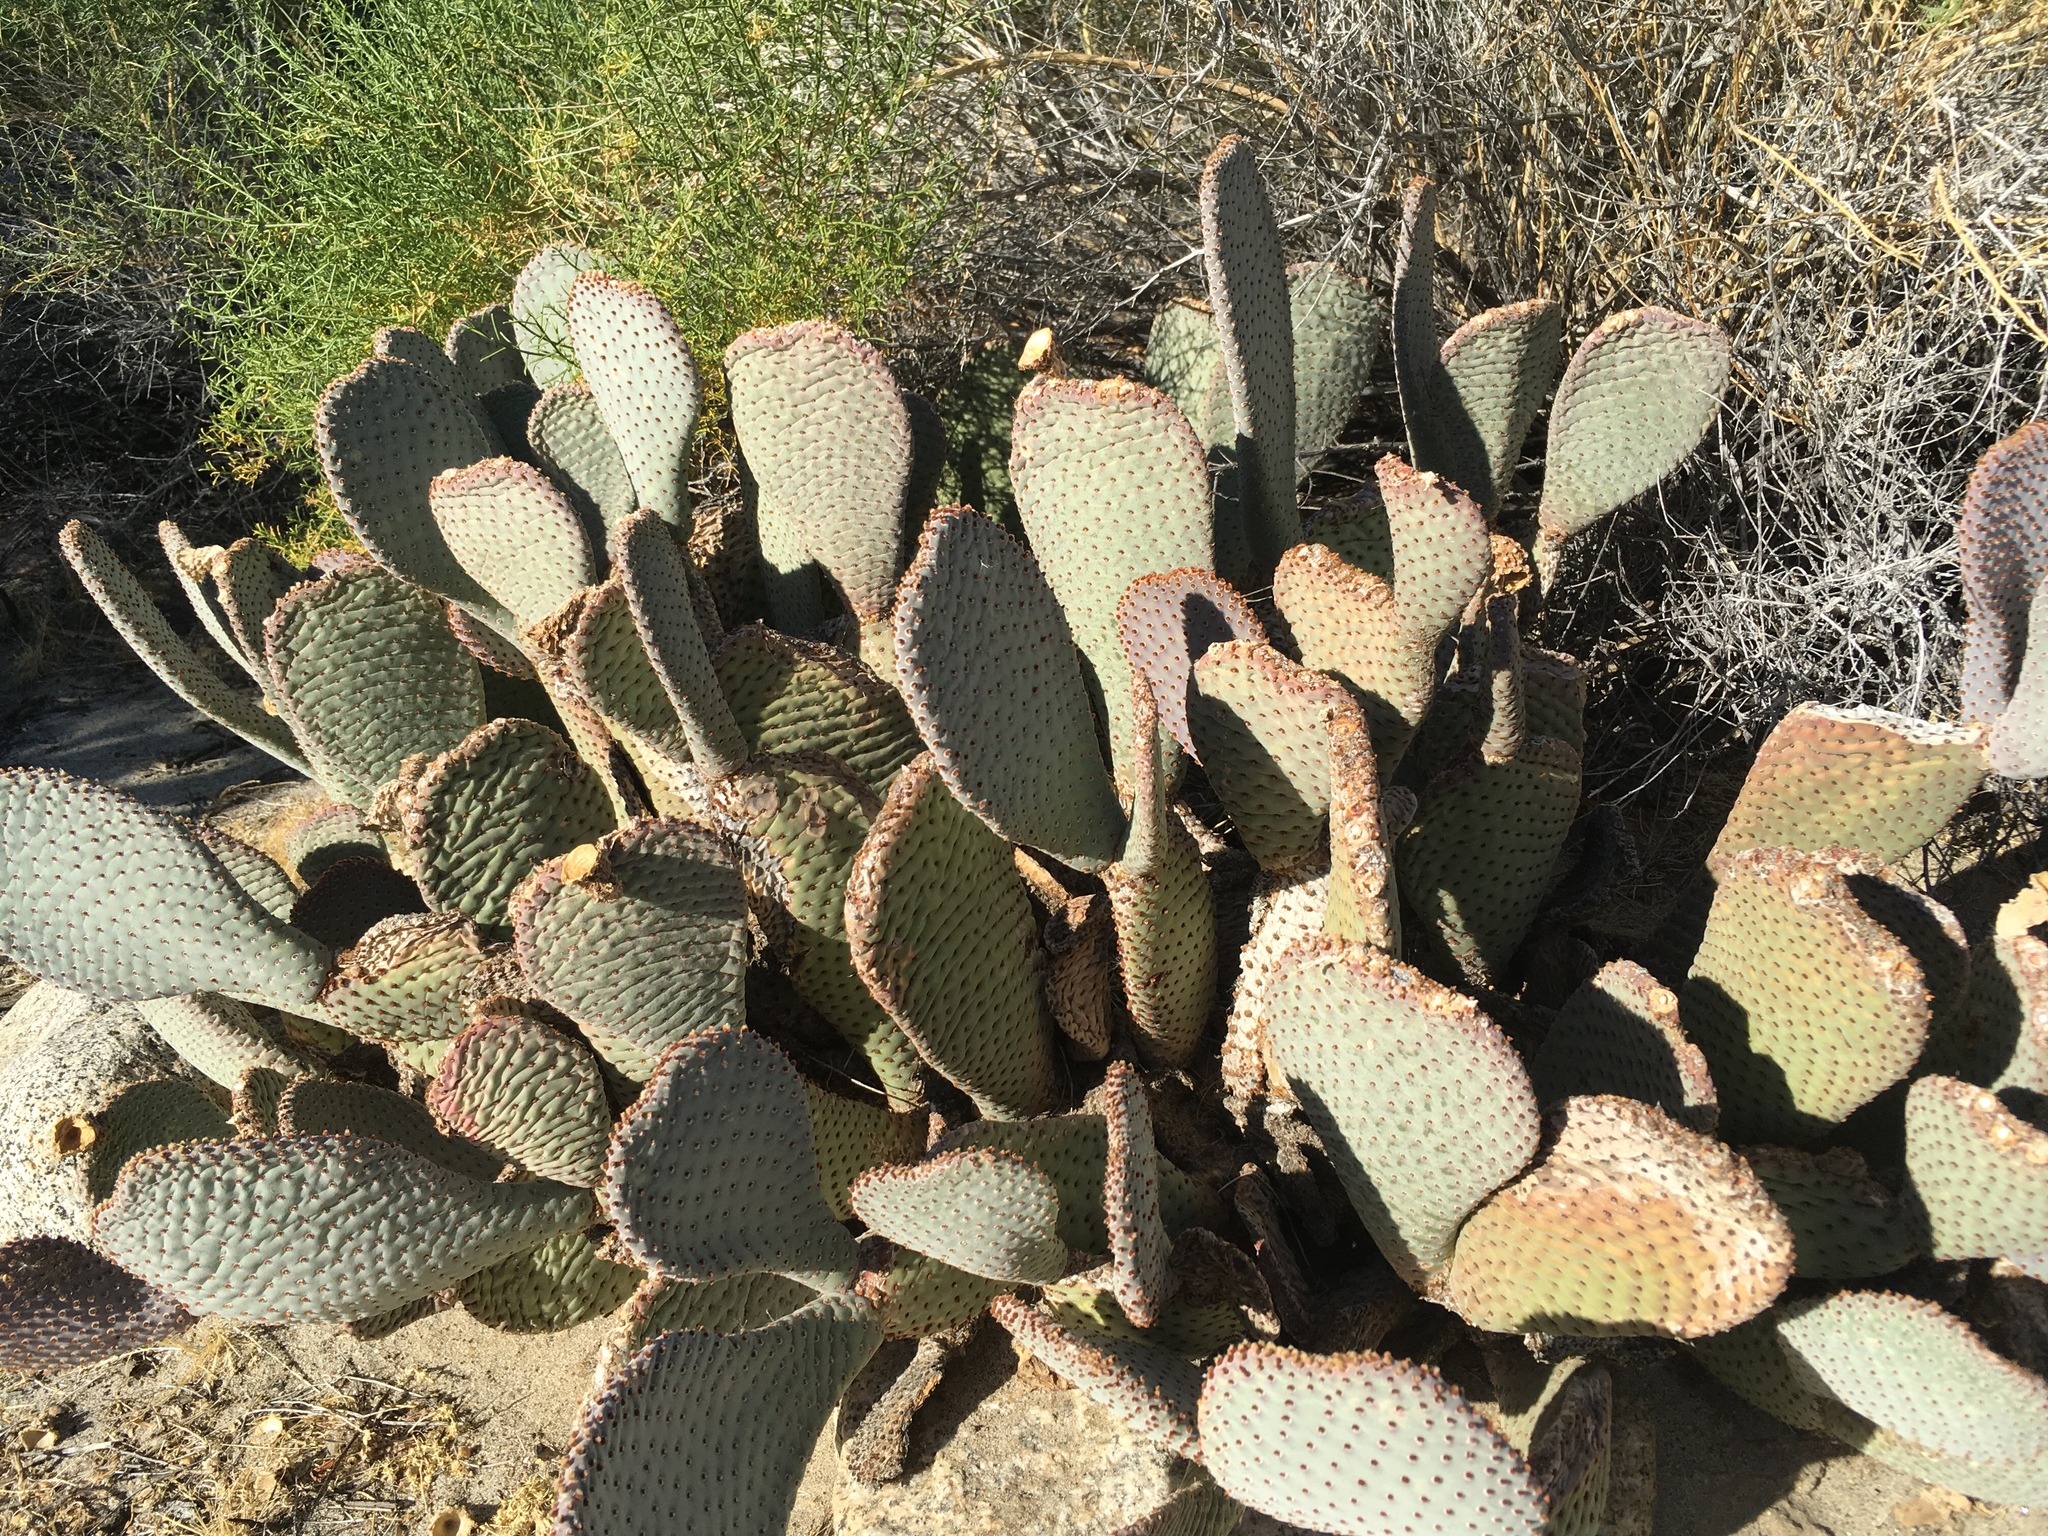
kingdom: Plantae
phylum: Tracheophyta
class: Magnoliopsida
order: Caryophyllales
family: Cactaceae
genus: Opuntia
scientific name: Opuntia basilaris
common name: Beavertail prickly-pear
